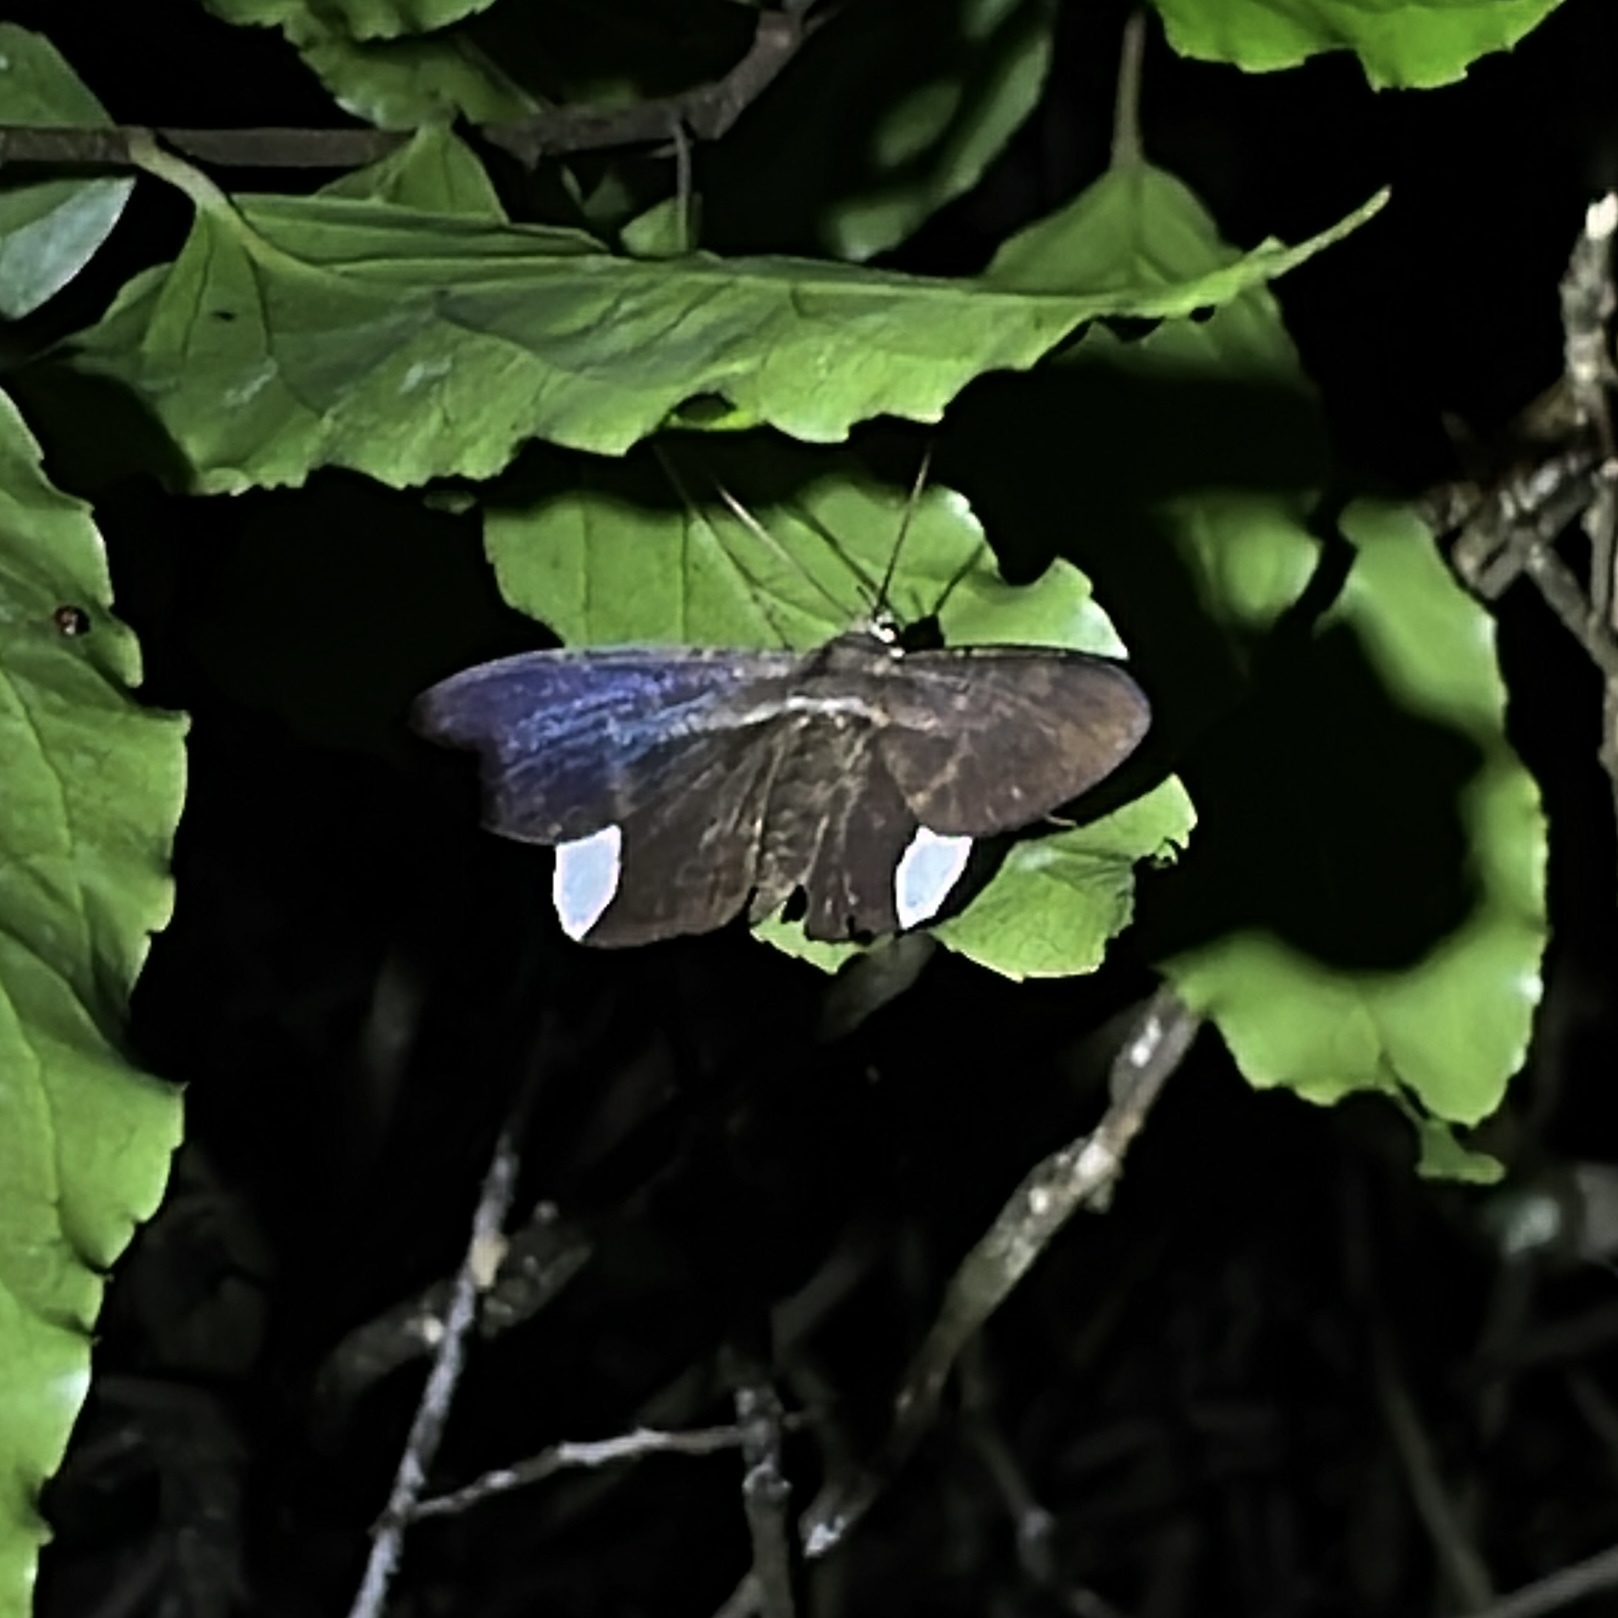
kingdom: Animalia
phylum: Arthropoda
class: Insecta
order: Lepidoptera
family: Erebidae
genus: Hemeroblemma
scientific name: Hemeroblemma leontia
